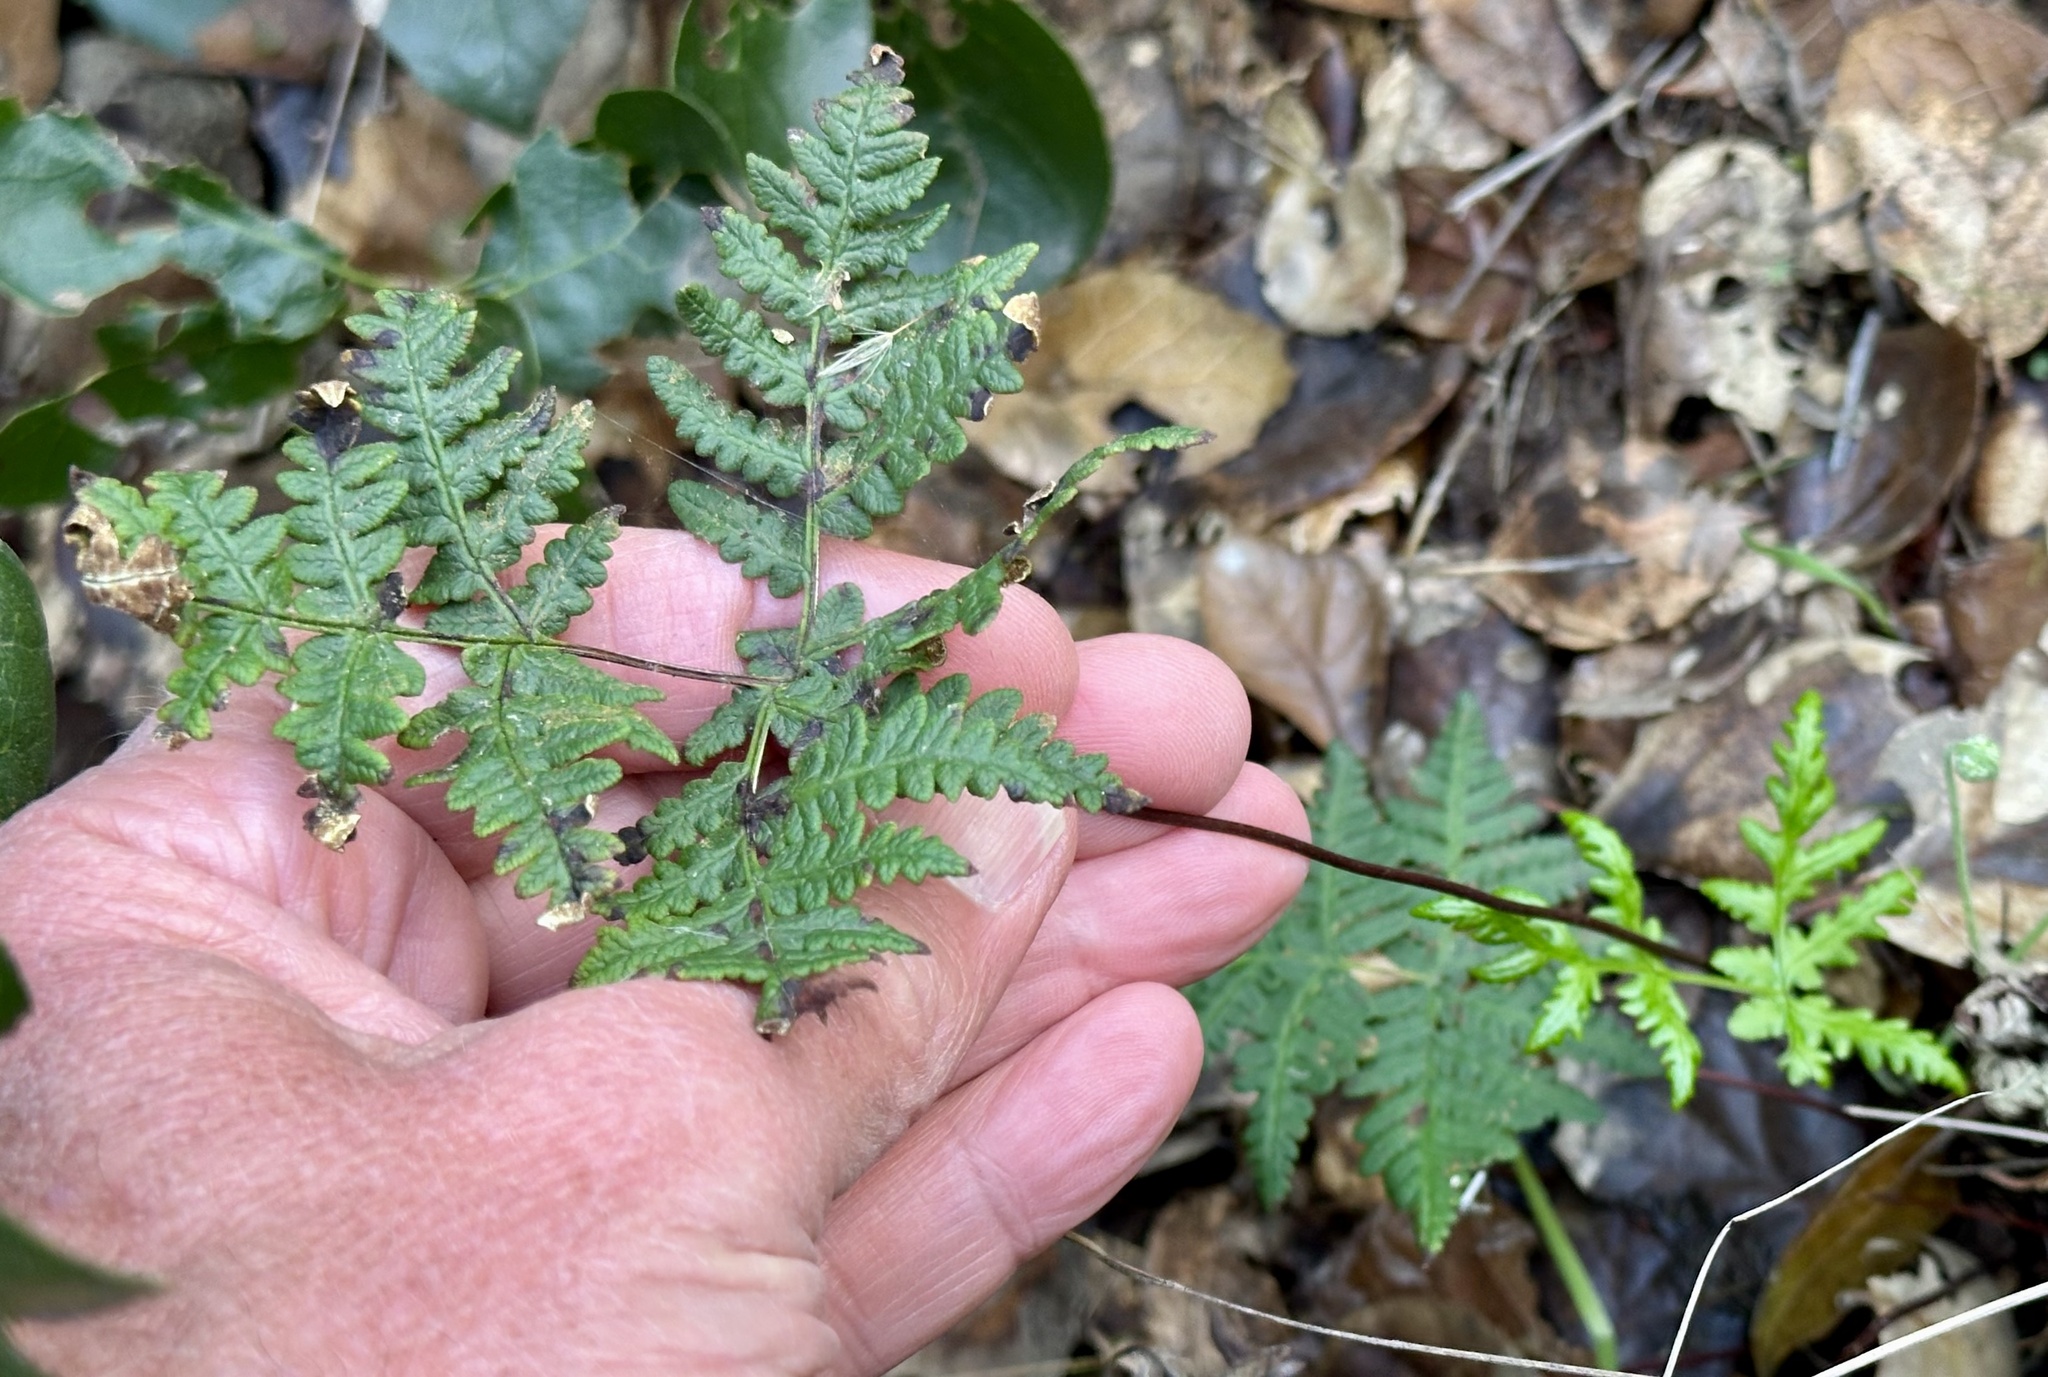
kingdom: Plantae
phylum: Tracheophyta
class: Polypodiopsida
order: Polypodiales
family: Pteridaceae
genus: Pentagramma
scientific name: Pentagramma triangularis
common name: Gold fern
